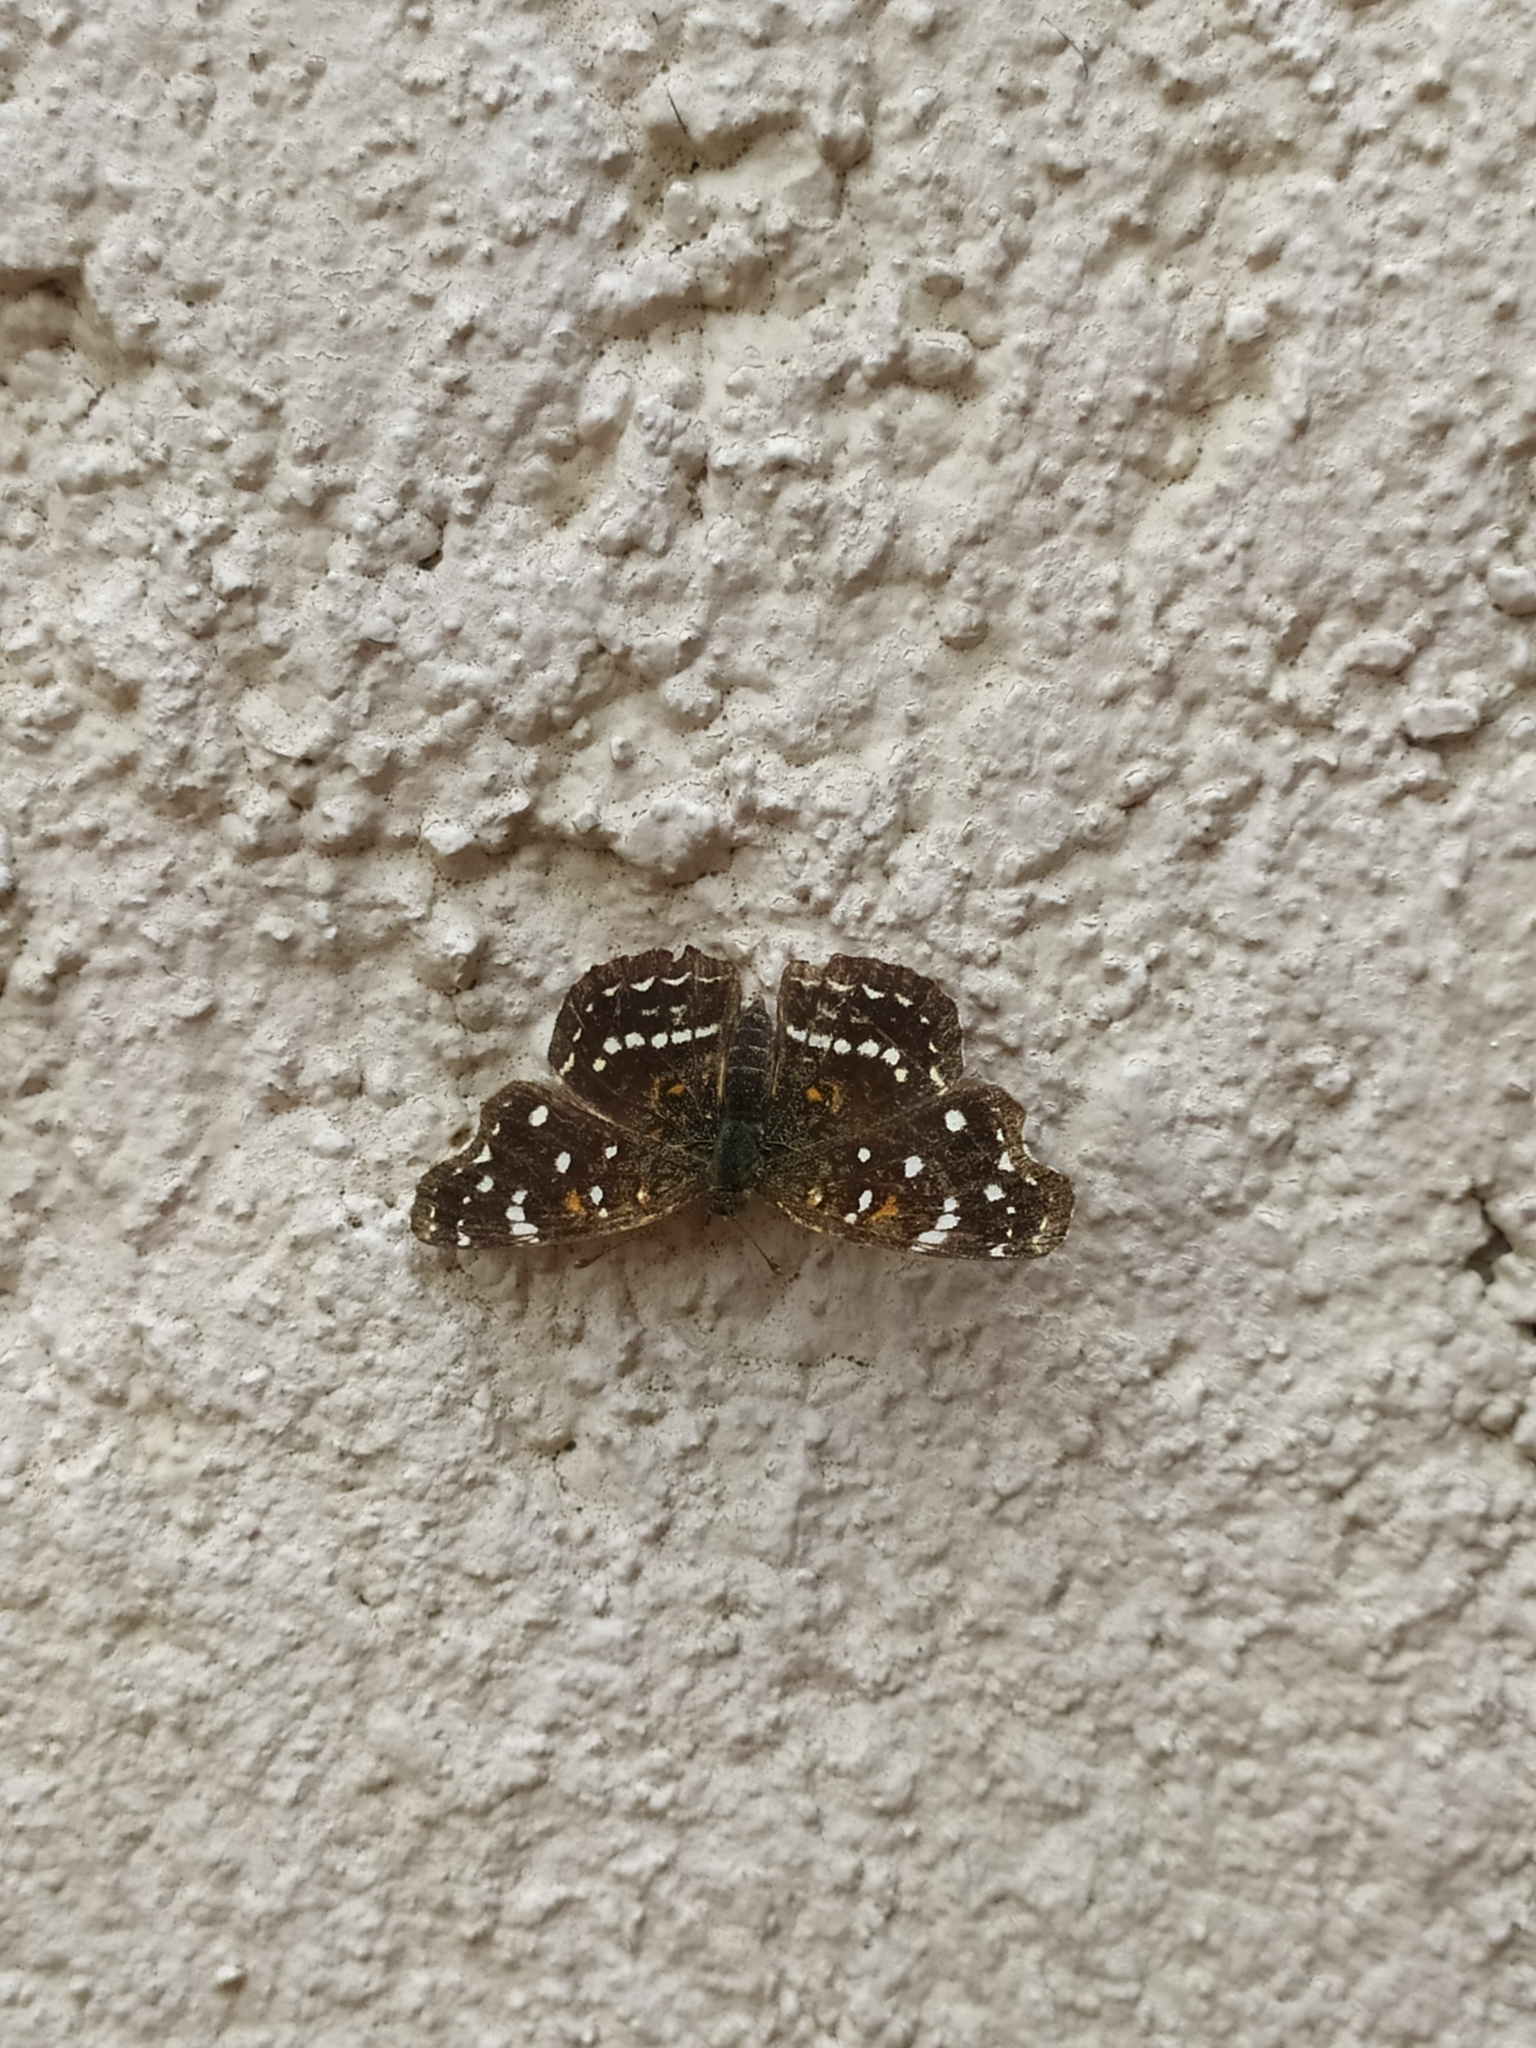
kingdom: Animalia
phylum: Arthropoda
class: Insecta
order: Lepidoptera
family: Nymphalidae
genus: Anthanassa
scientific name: Anthanassa texana
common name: Texan crescent
